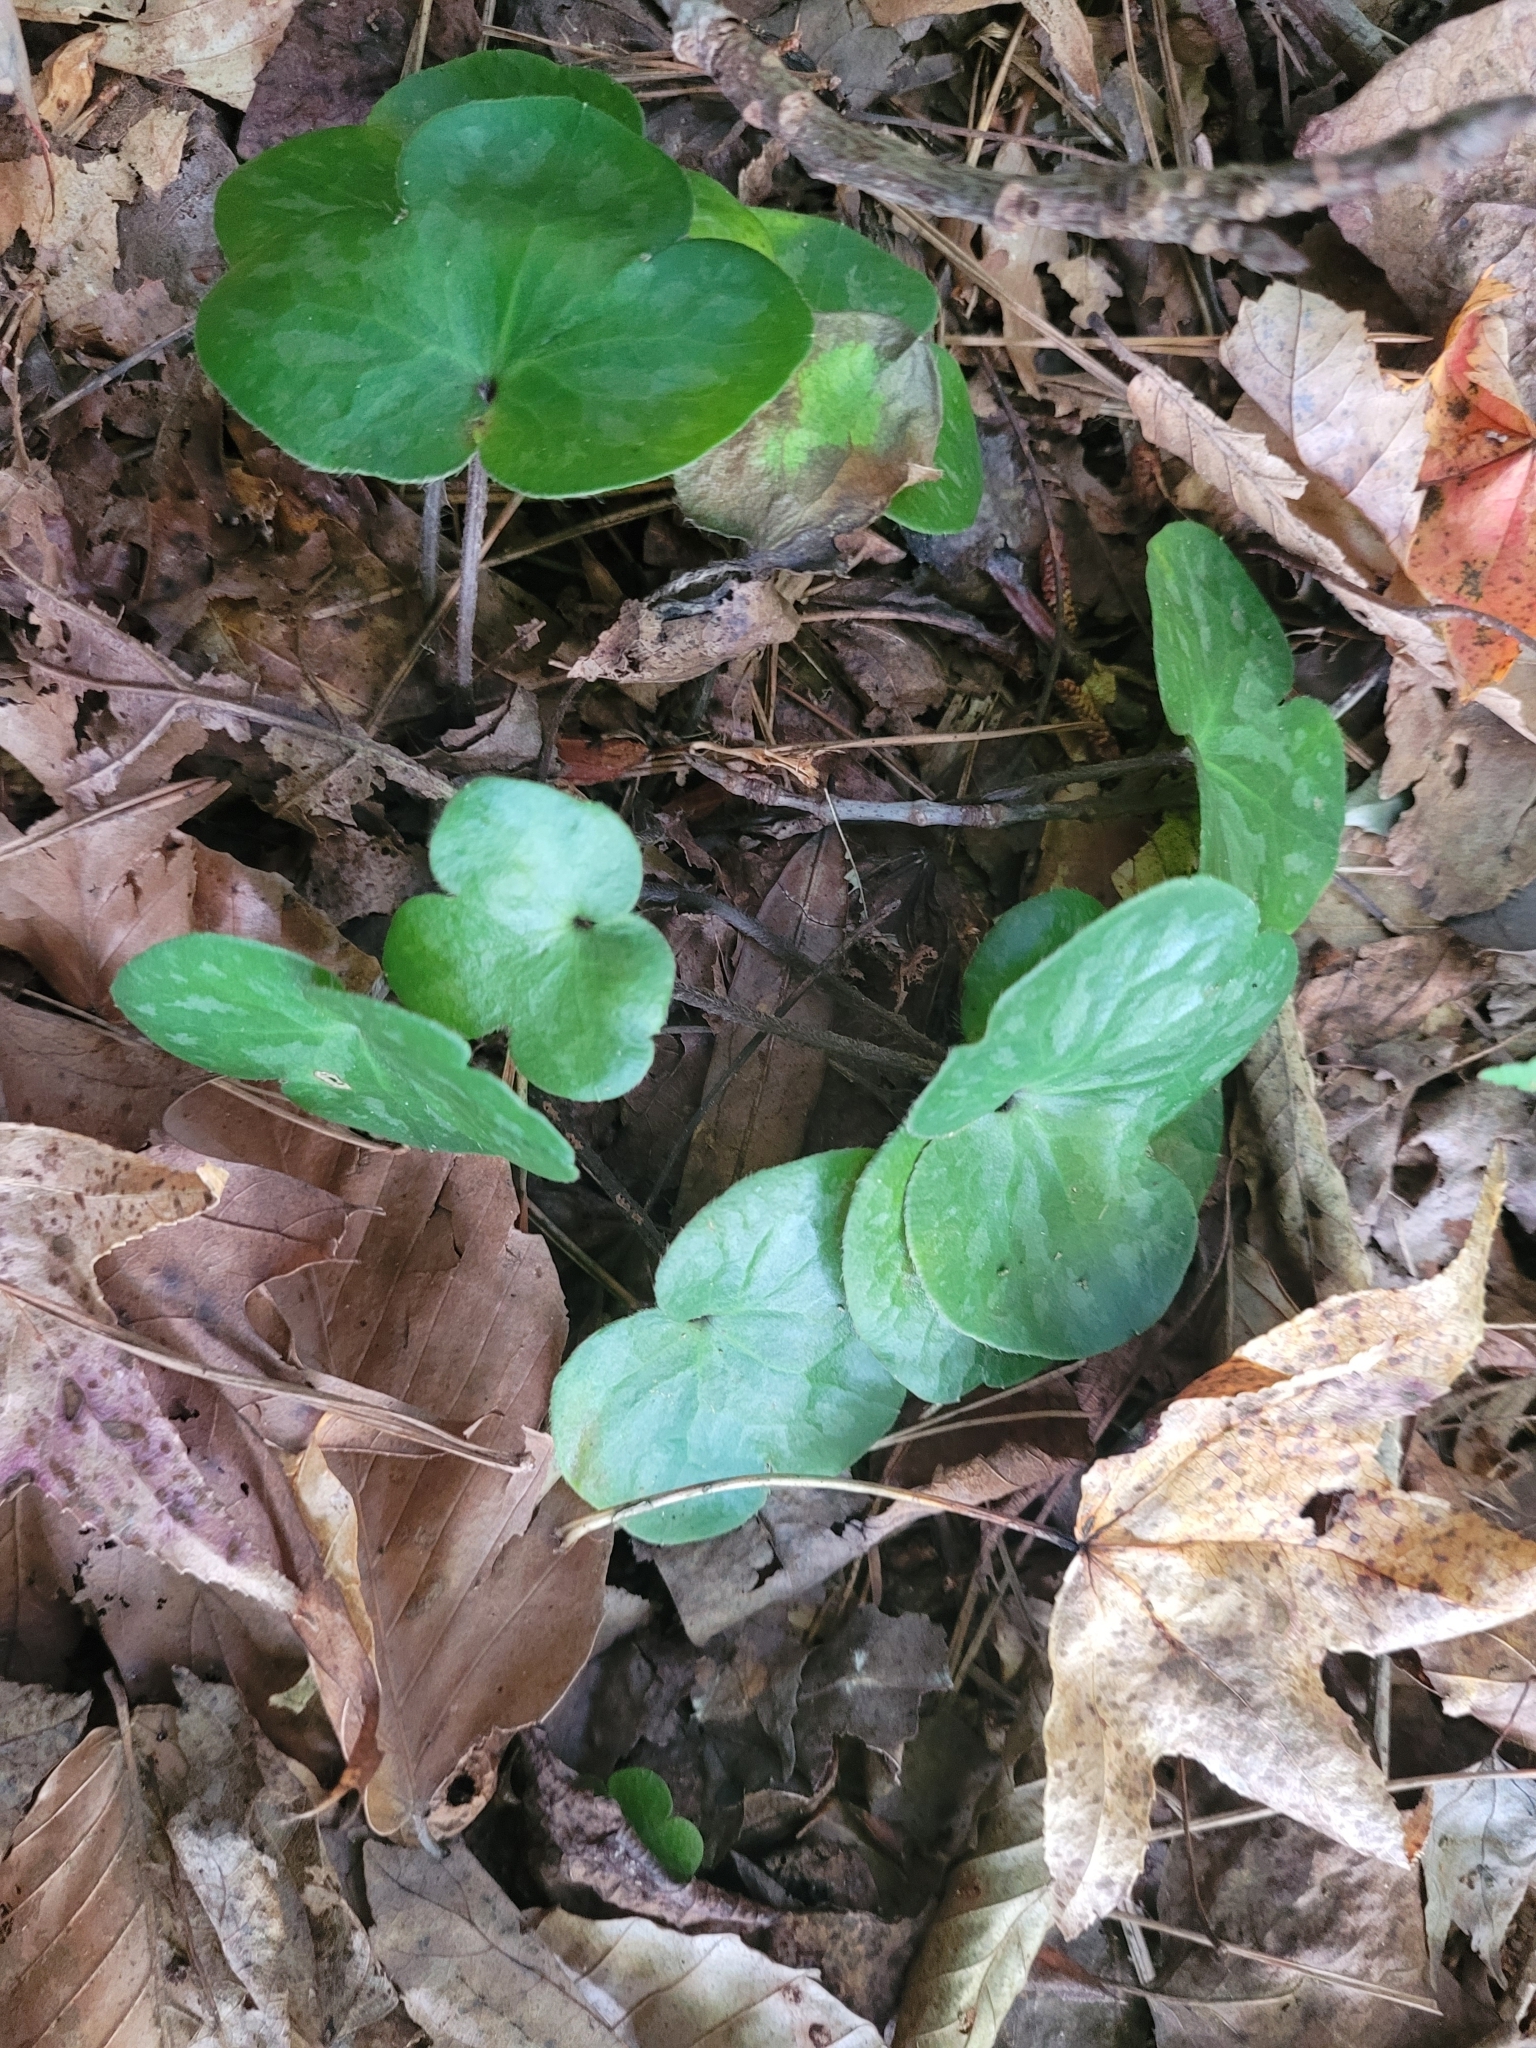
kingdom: Plantae
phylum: Tracheophyta
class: Magnoliopsida
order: Ranunculales
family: Ranunculaceae
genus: Hepatica
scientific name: Hepatica americana
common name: American hepatica
